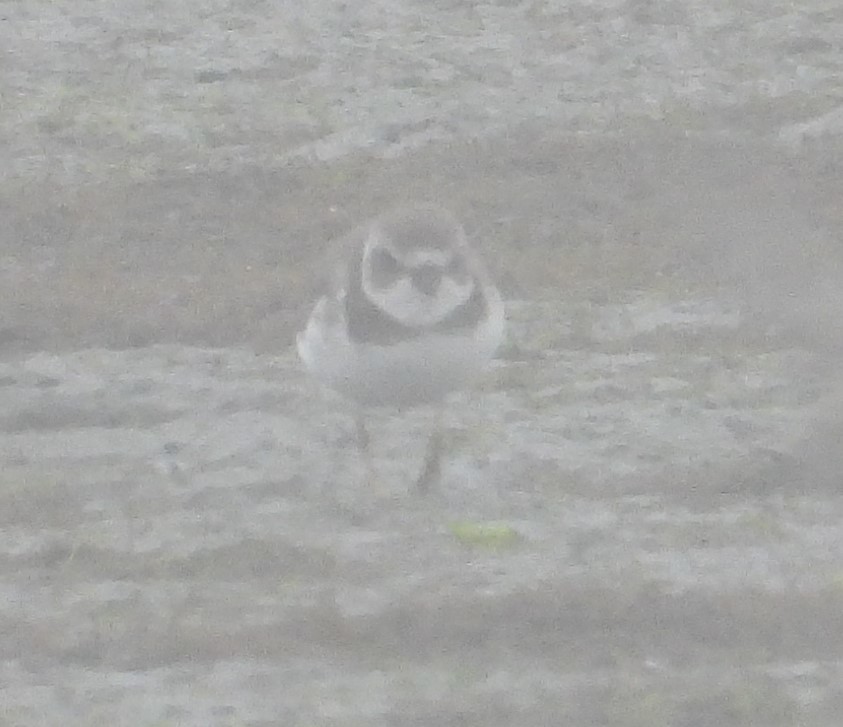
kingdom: Animalia
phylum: Chordata
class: Aves
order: Charadriiformes
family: Charadriidae
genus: Charadrius
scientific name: Charadrius semipalmatus
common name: Semipalmated plover
